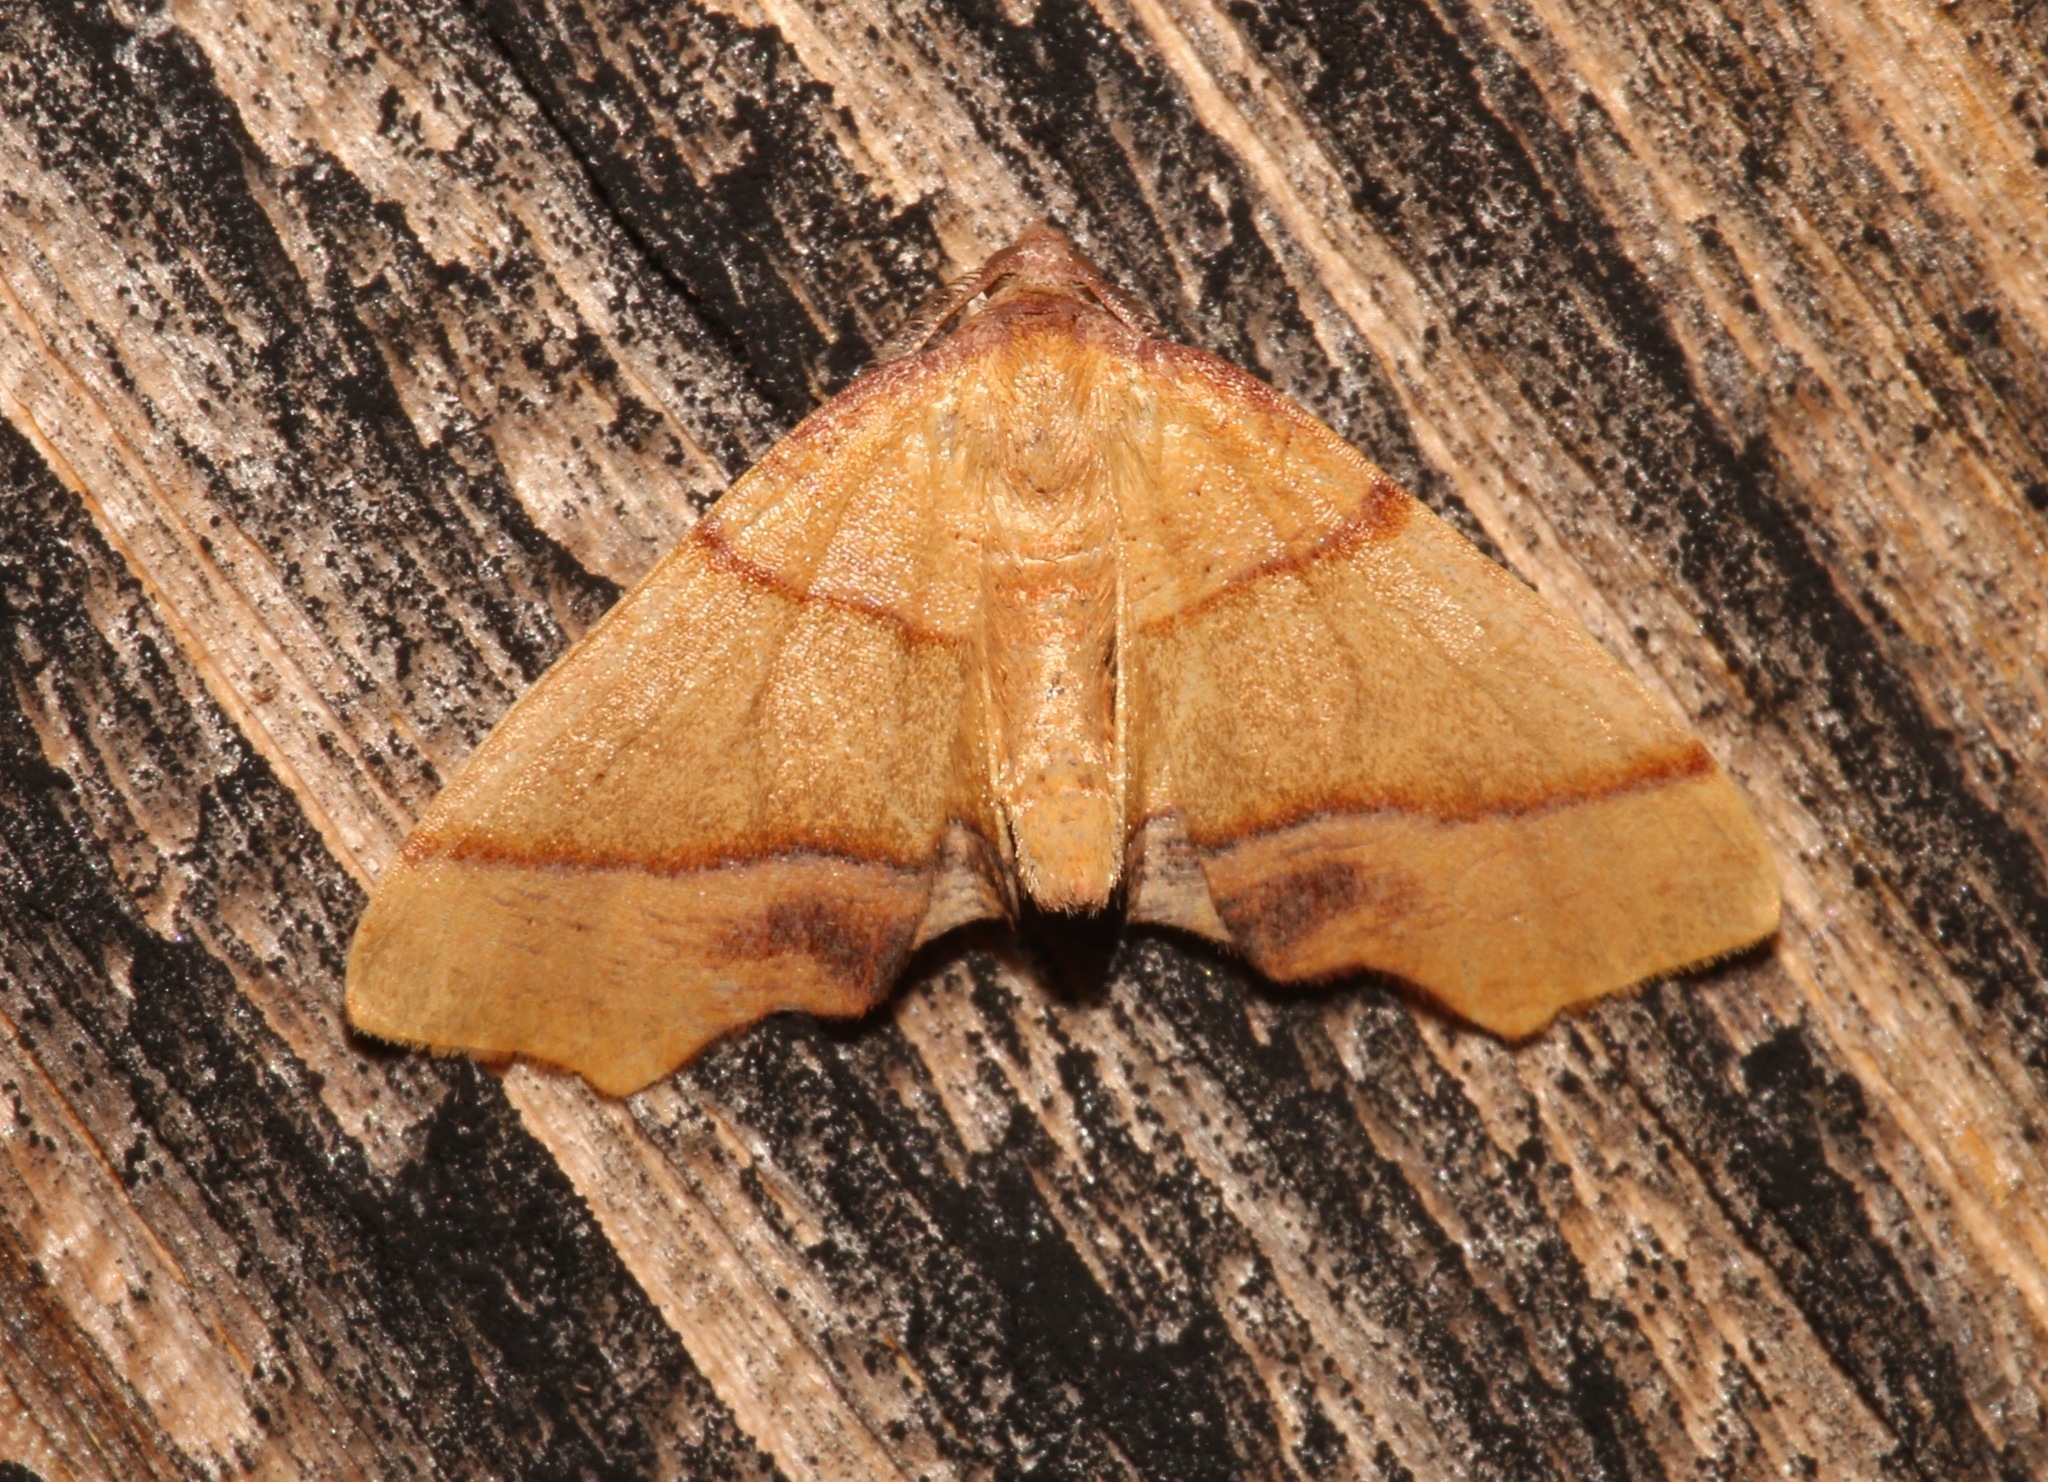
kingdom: Animalia
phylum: Arthropoda
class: Insecta
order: Lepidoptera
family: Geometridae
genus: Plagodis
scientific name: Plagodis phlogosaria
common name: Straight-lined plagodis
